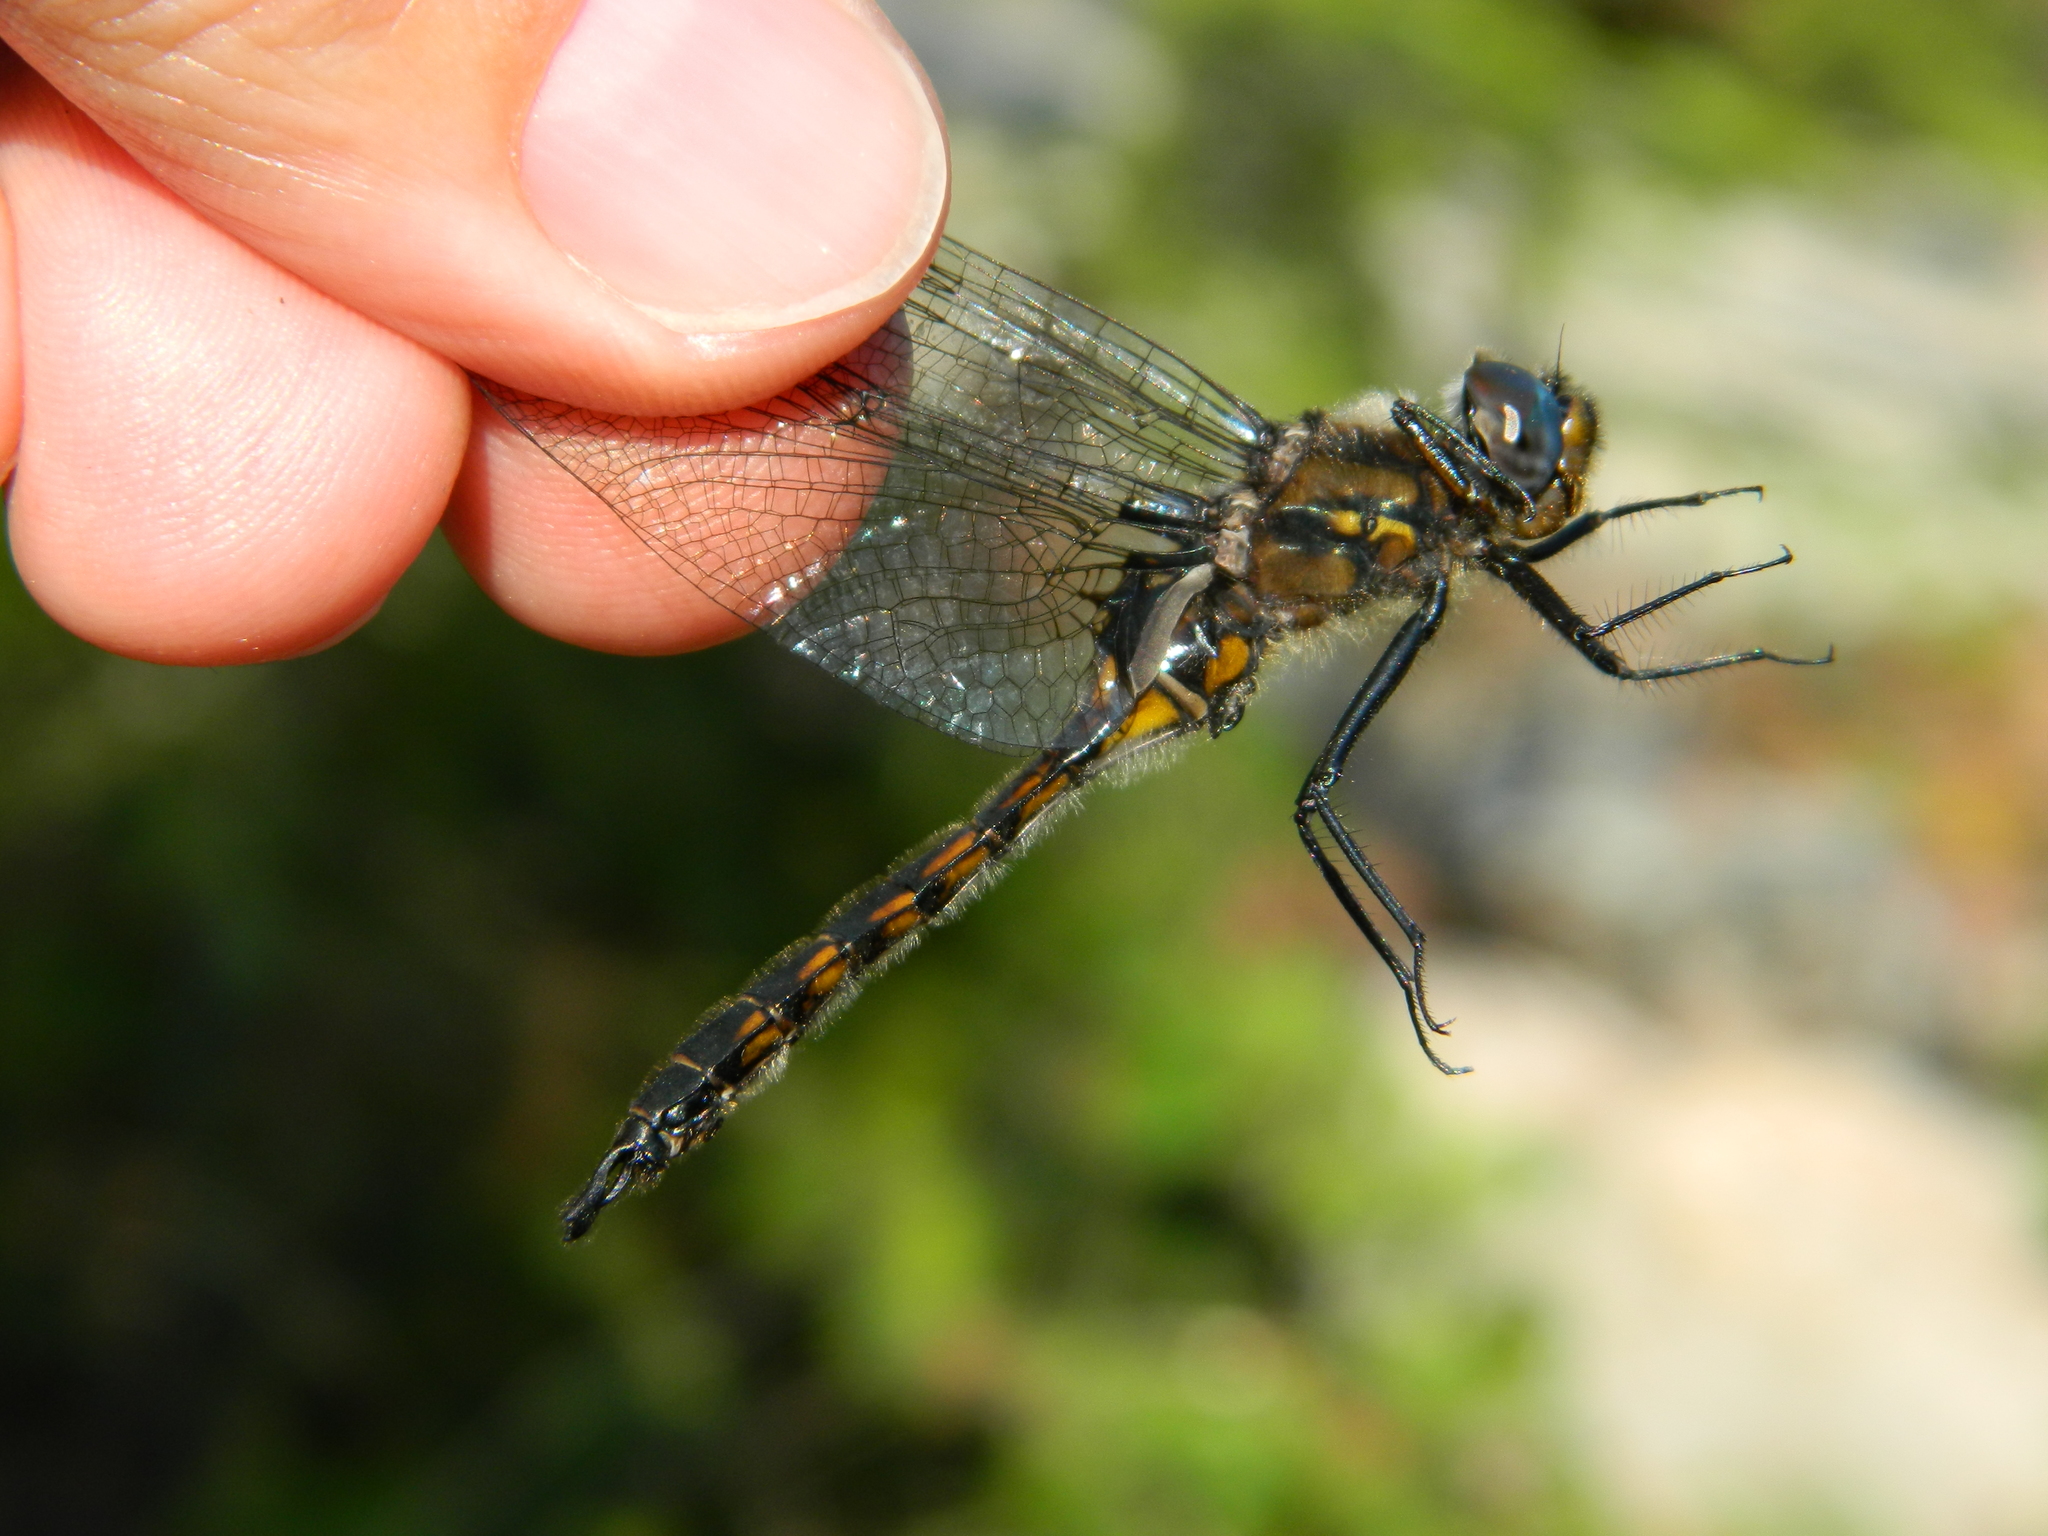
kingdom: Animalia
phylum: Arthropoda
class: Insecta
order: Odonata
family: Corduliidae
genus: Epitheca
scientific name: Epitheca spinigera
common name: Spiny baskettail
